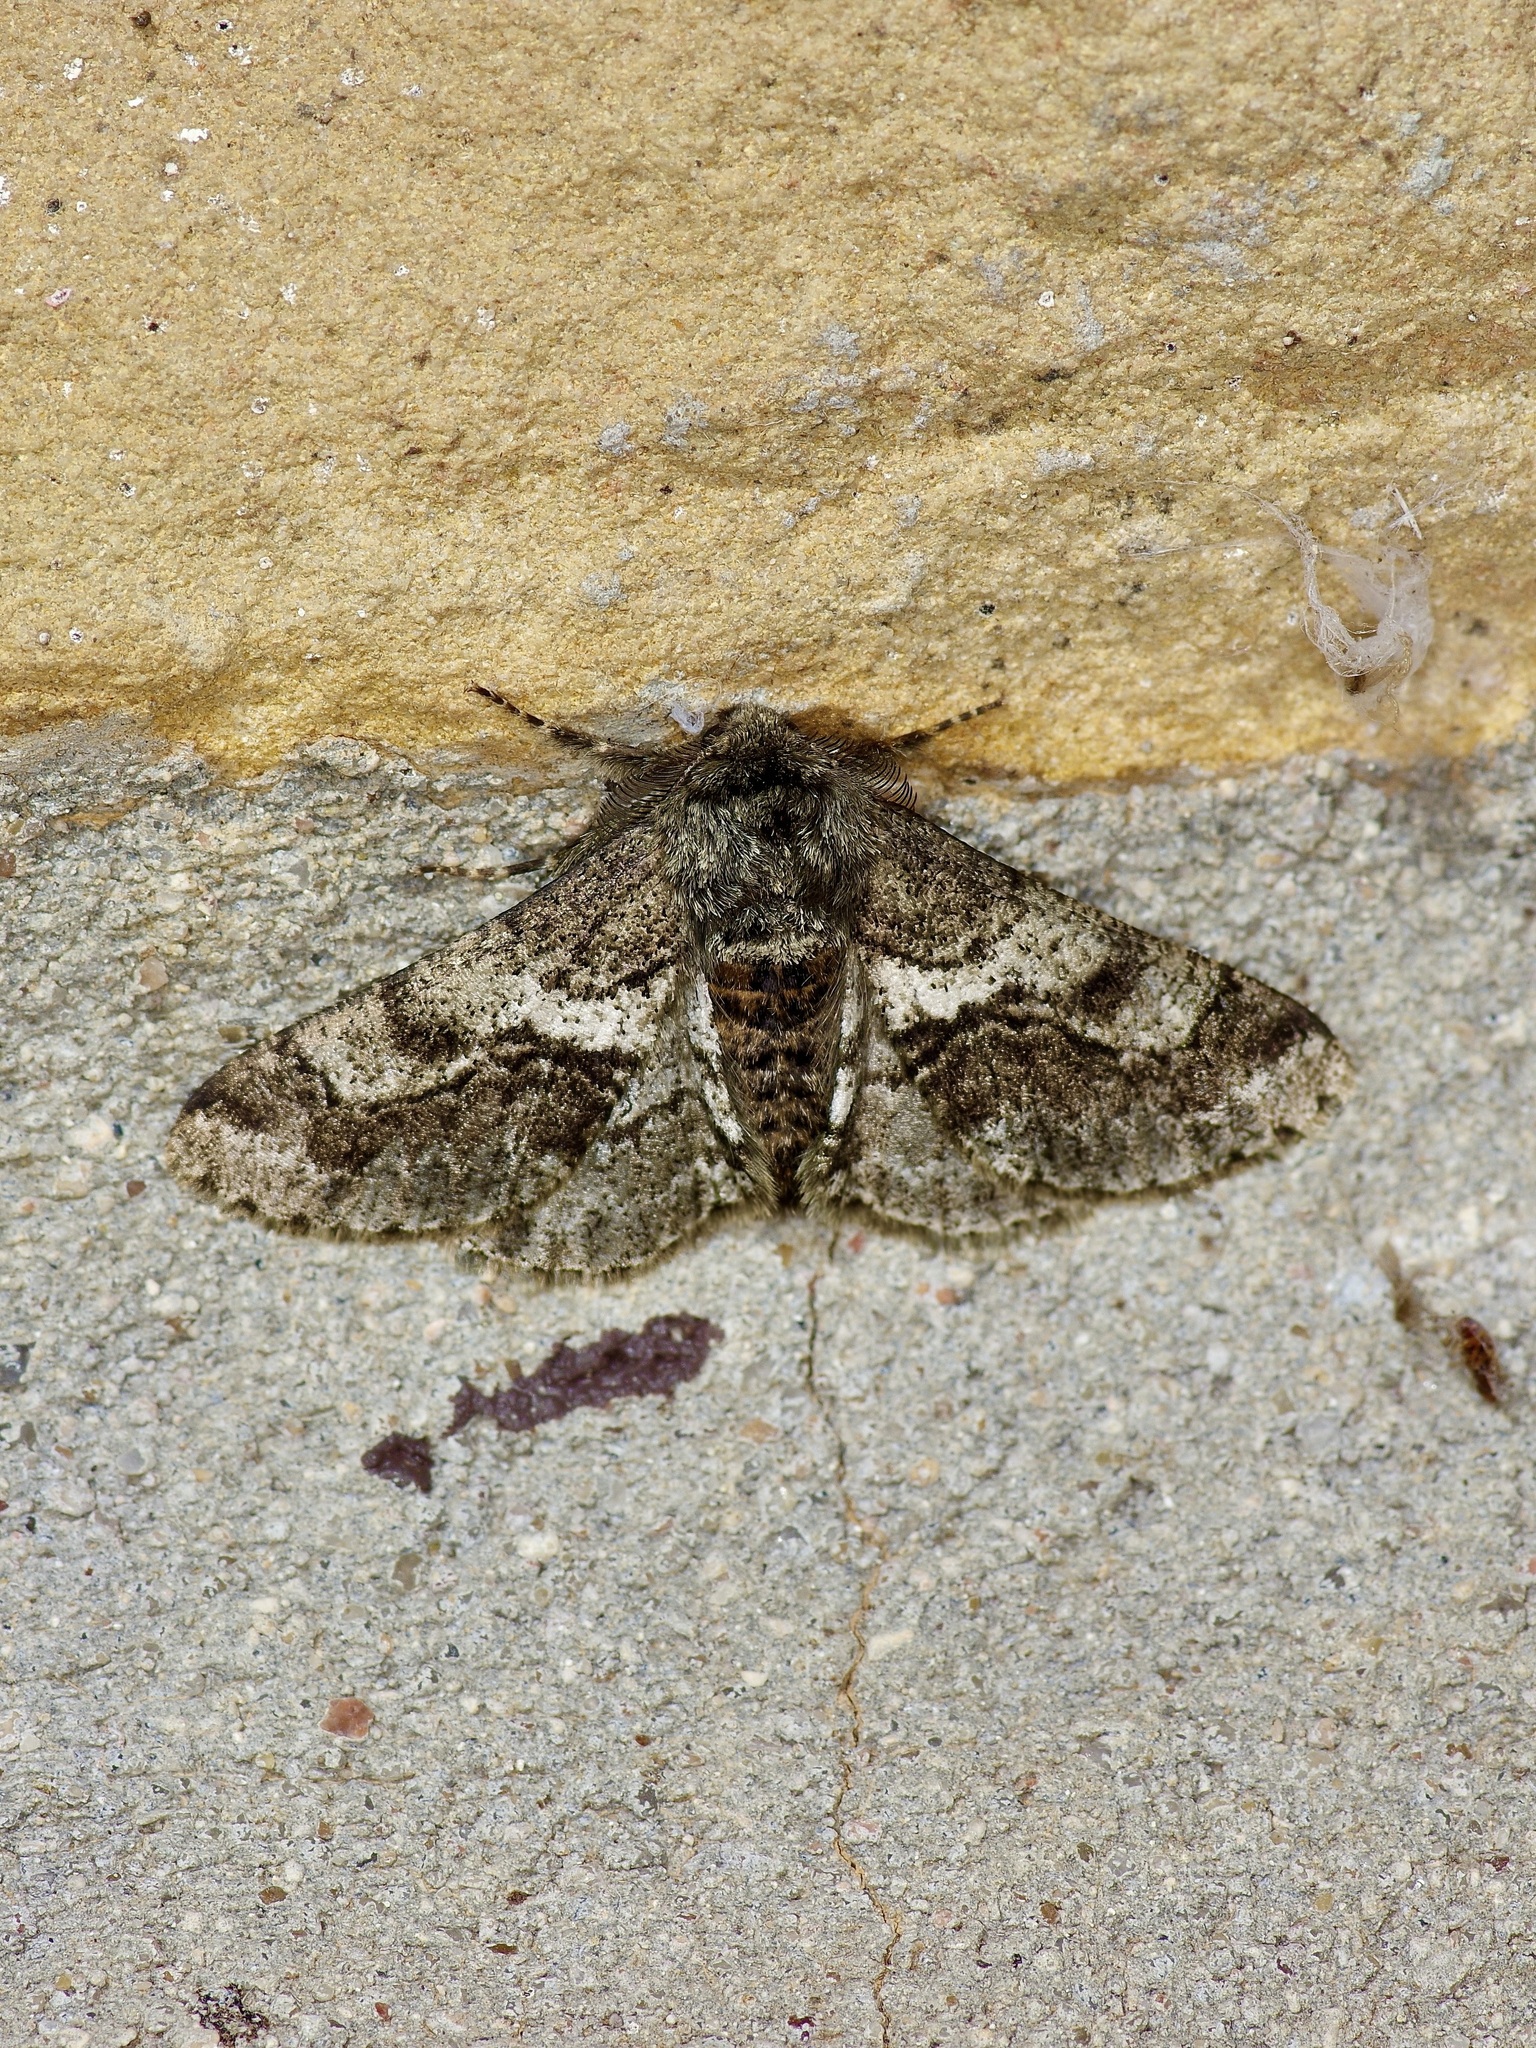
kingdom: Animalia
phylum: Arthropoda
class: Insecta
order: Lepidoptera
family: Geometridae
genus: Lycia
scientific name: Lycia ypsilon
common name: Wooly gray
